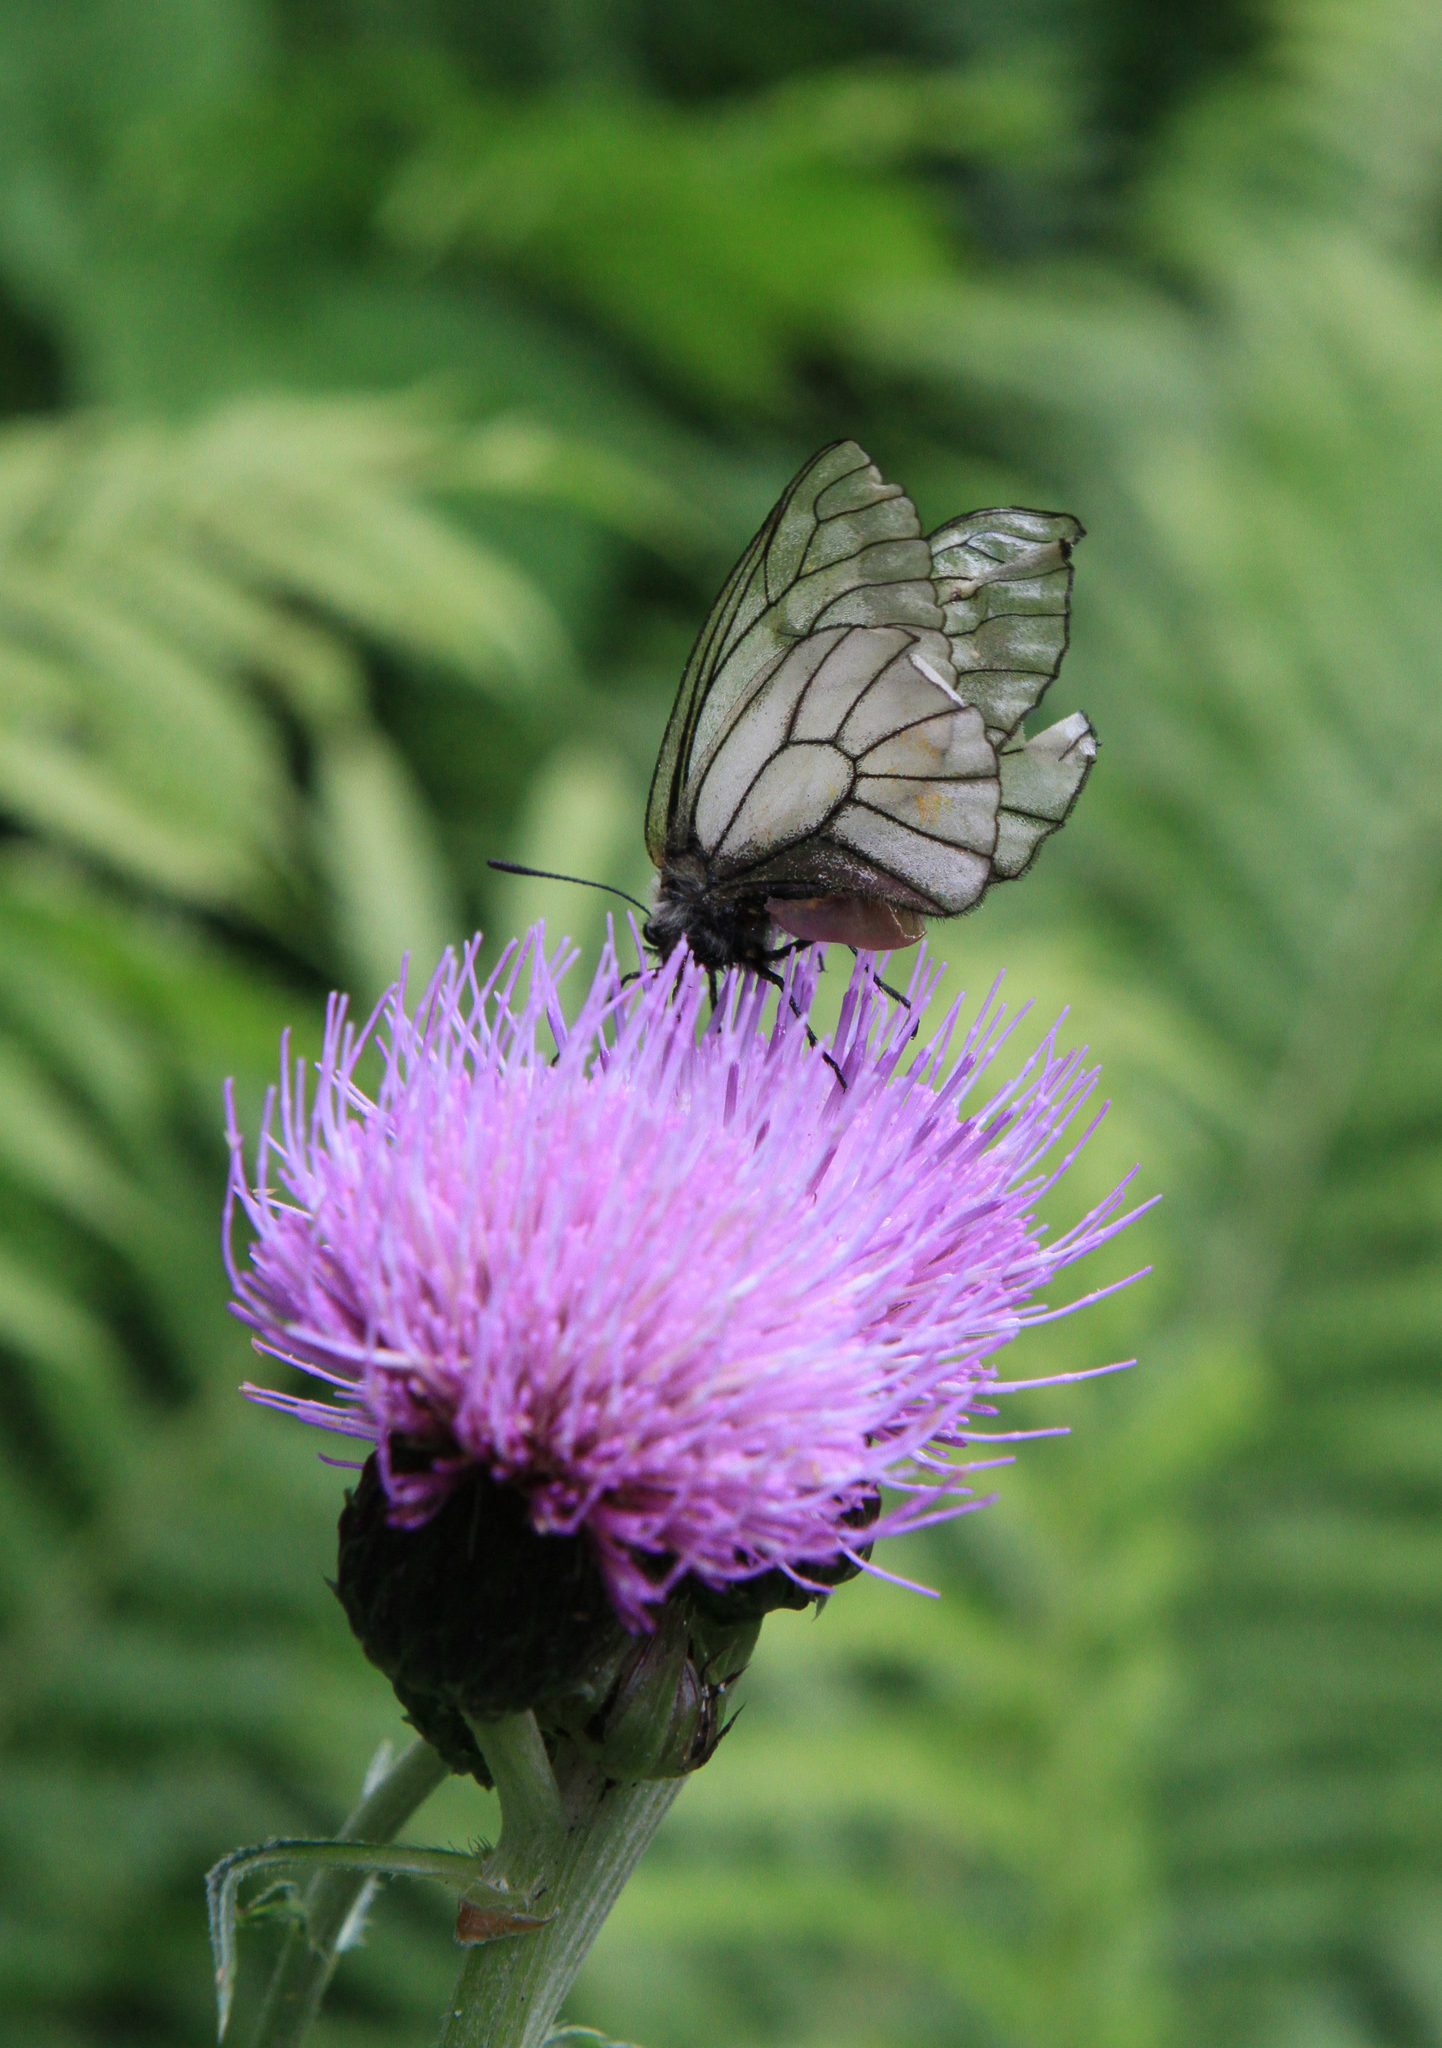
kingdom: Animalia
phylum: Arthropoda
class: Insecta
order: Lepidoptera
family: Papilionidae
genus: Parnassius
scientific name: Parnassius stubbendorfii
